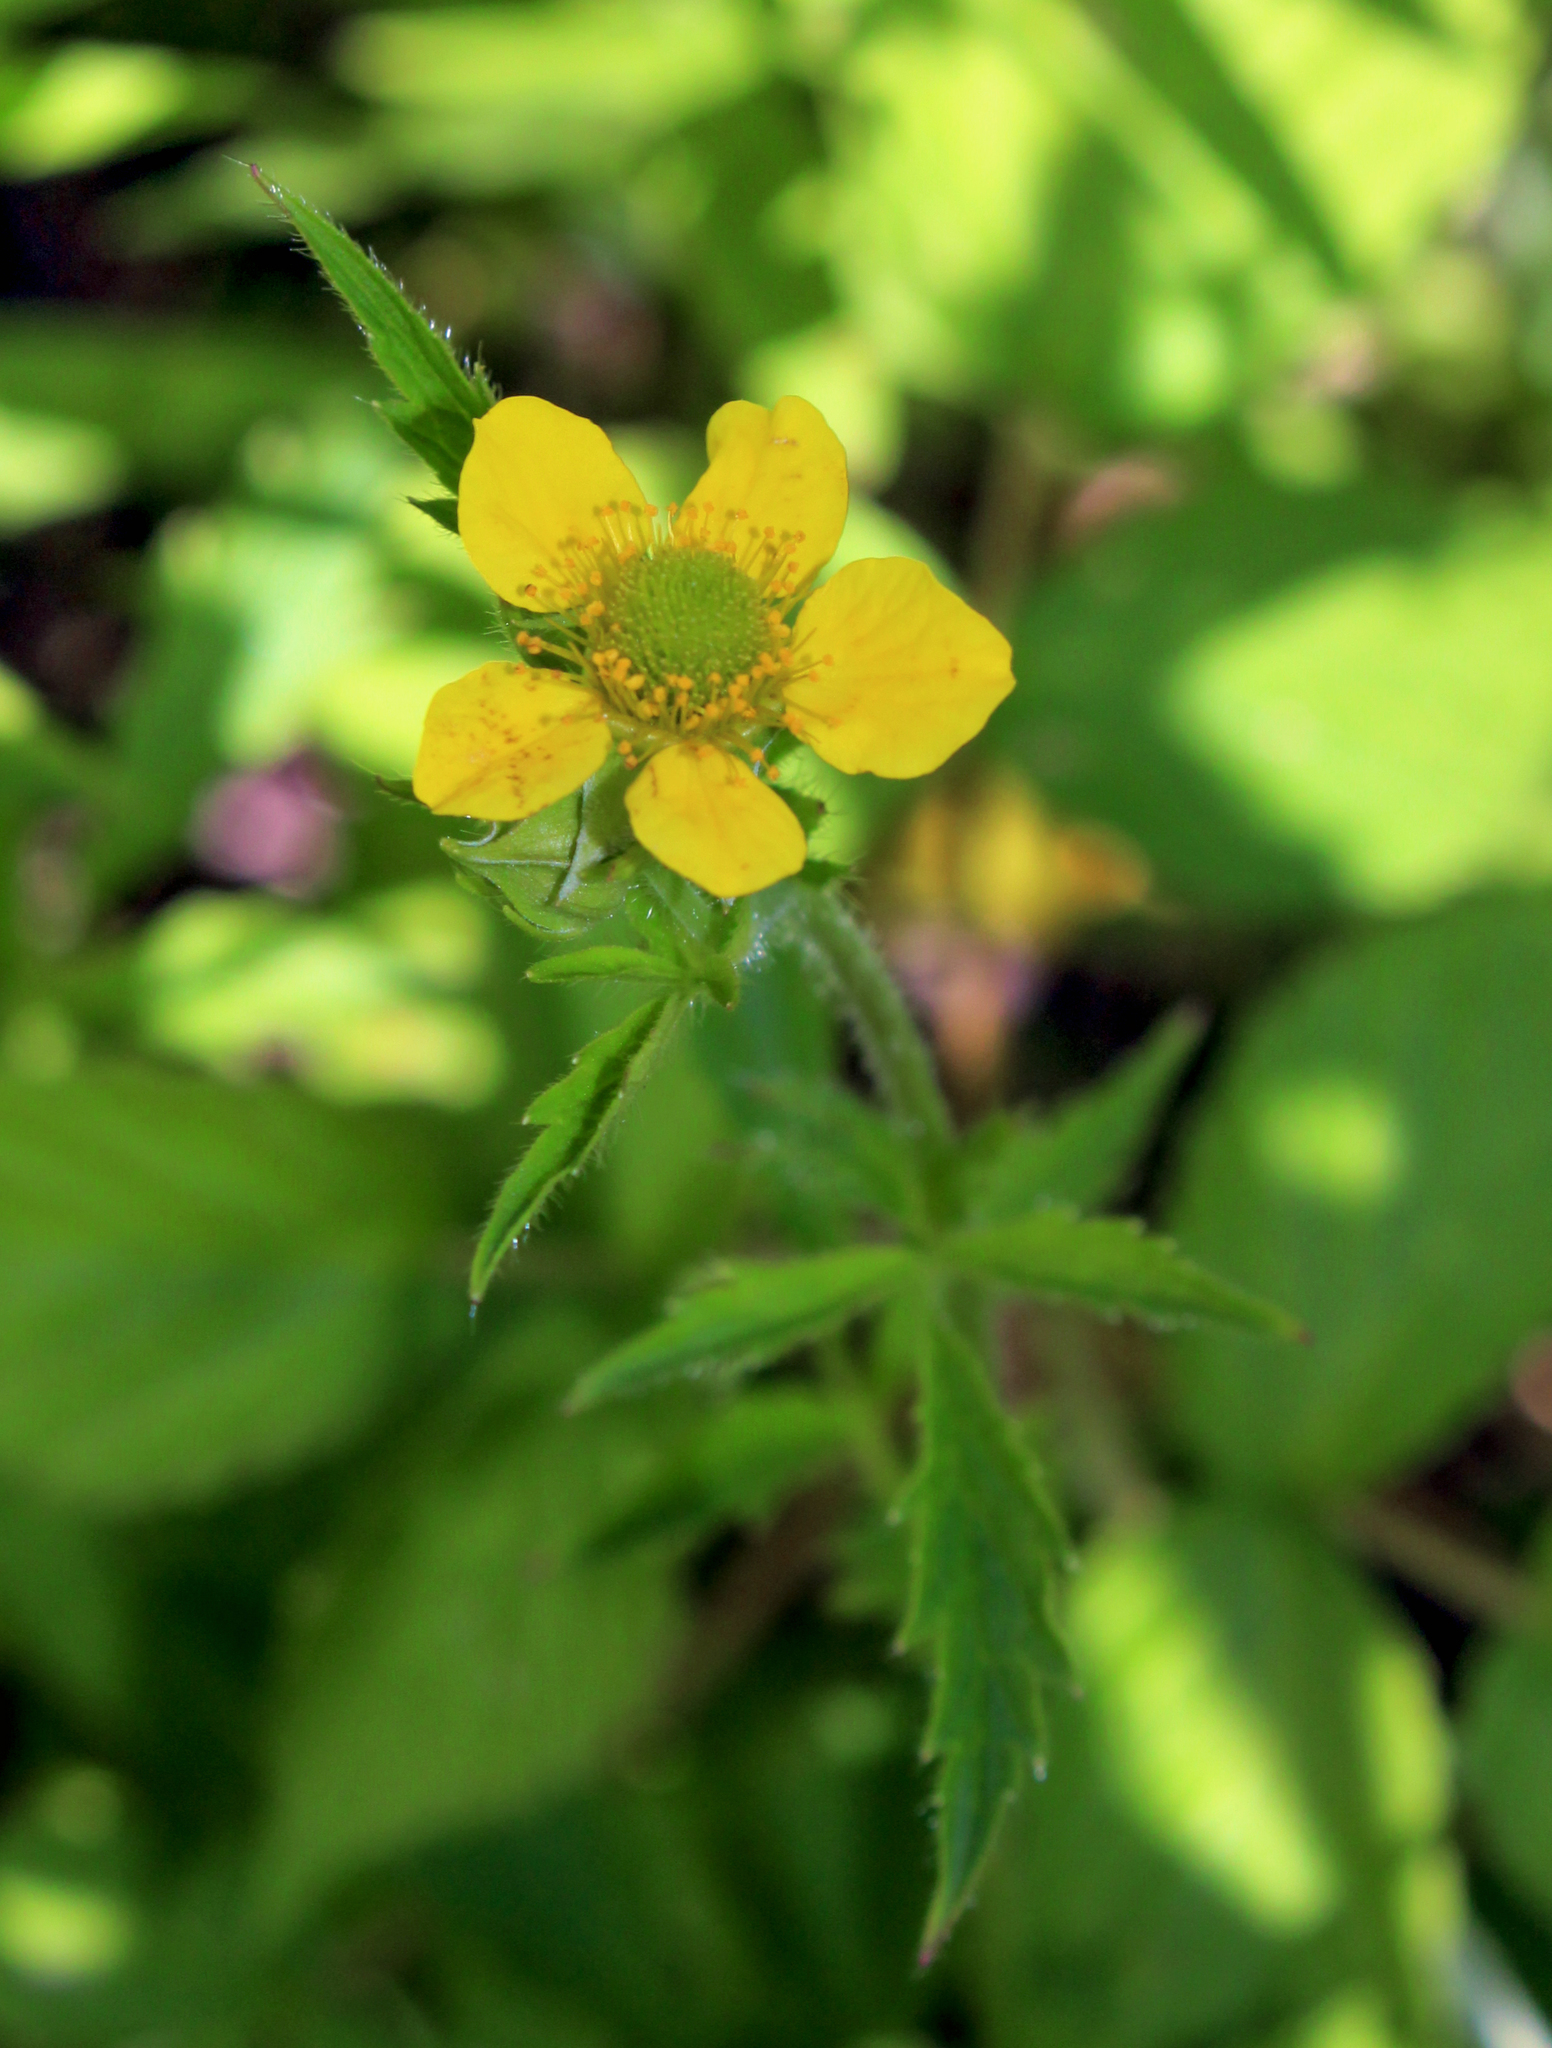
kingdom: Plantae
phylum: Tracheophyta
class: Magnoliopsida
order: Rosales
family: Rosaceae
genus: Geum
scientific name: Geum aleppicum
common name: Yellow avens
